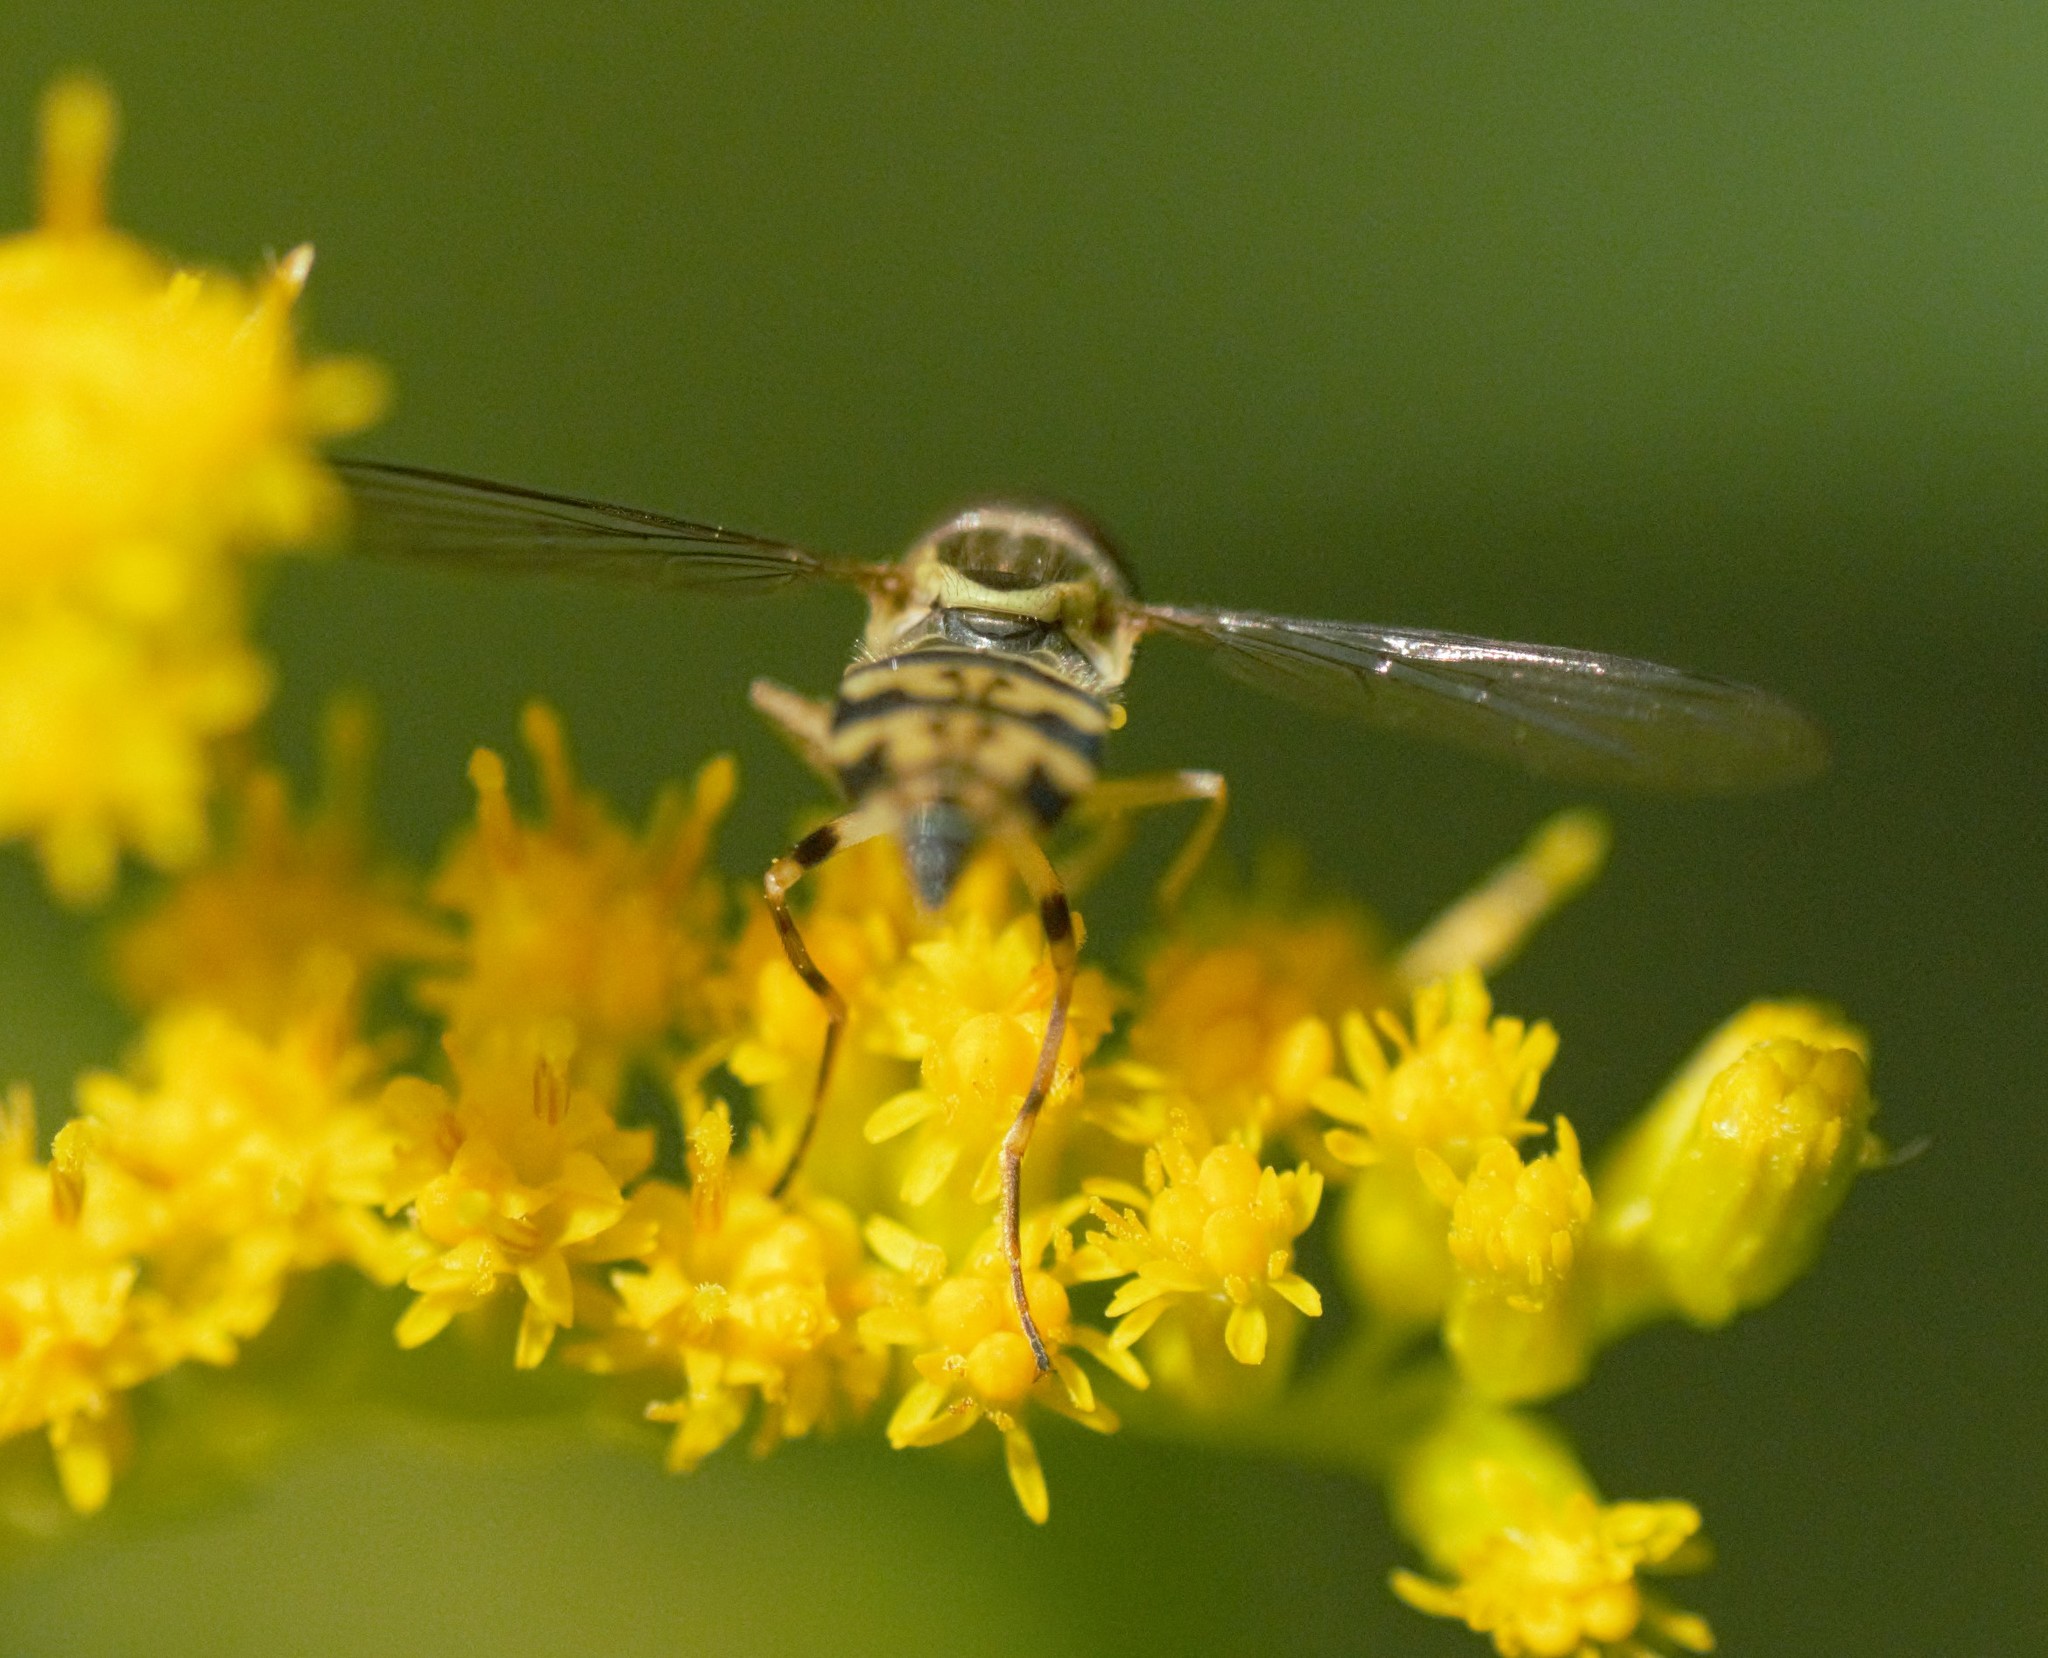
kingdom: Animalia
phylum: Arthropoda
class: Insecta
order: Diptera
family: Syrphidae
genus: Toxomerus
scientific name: Toxomerus geminatus
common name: Eastern calligrapher
